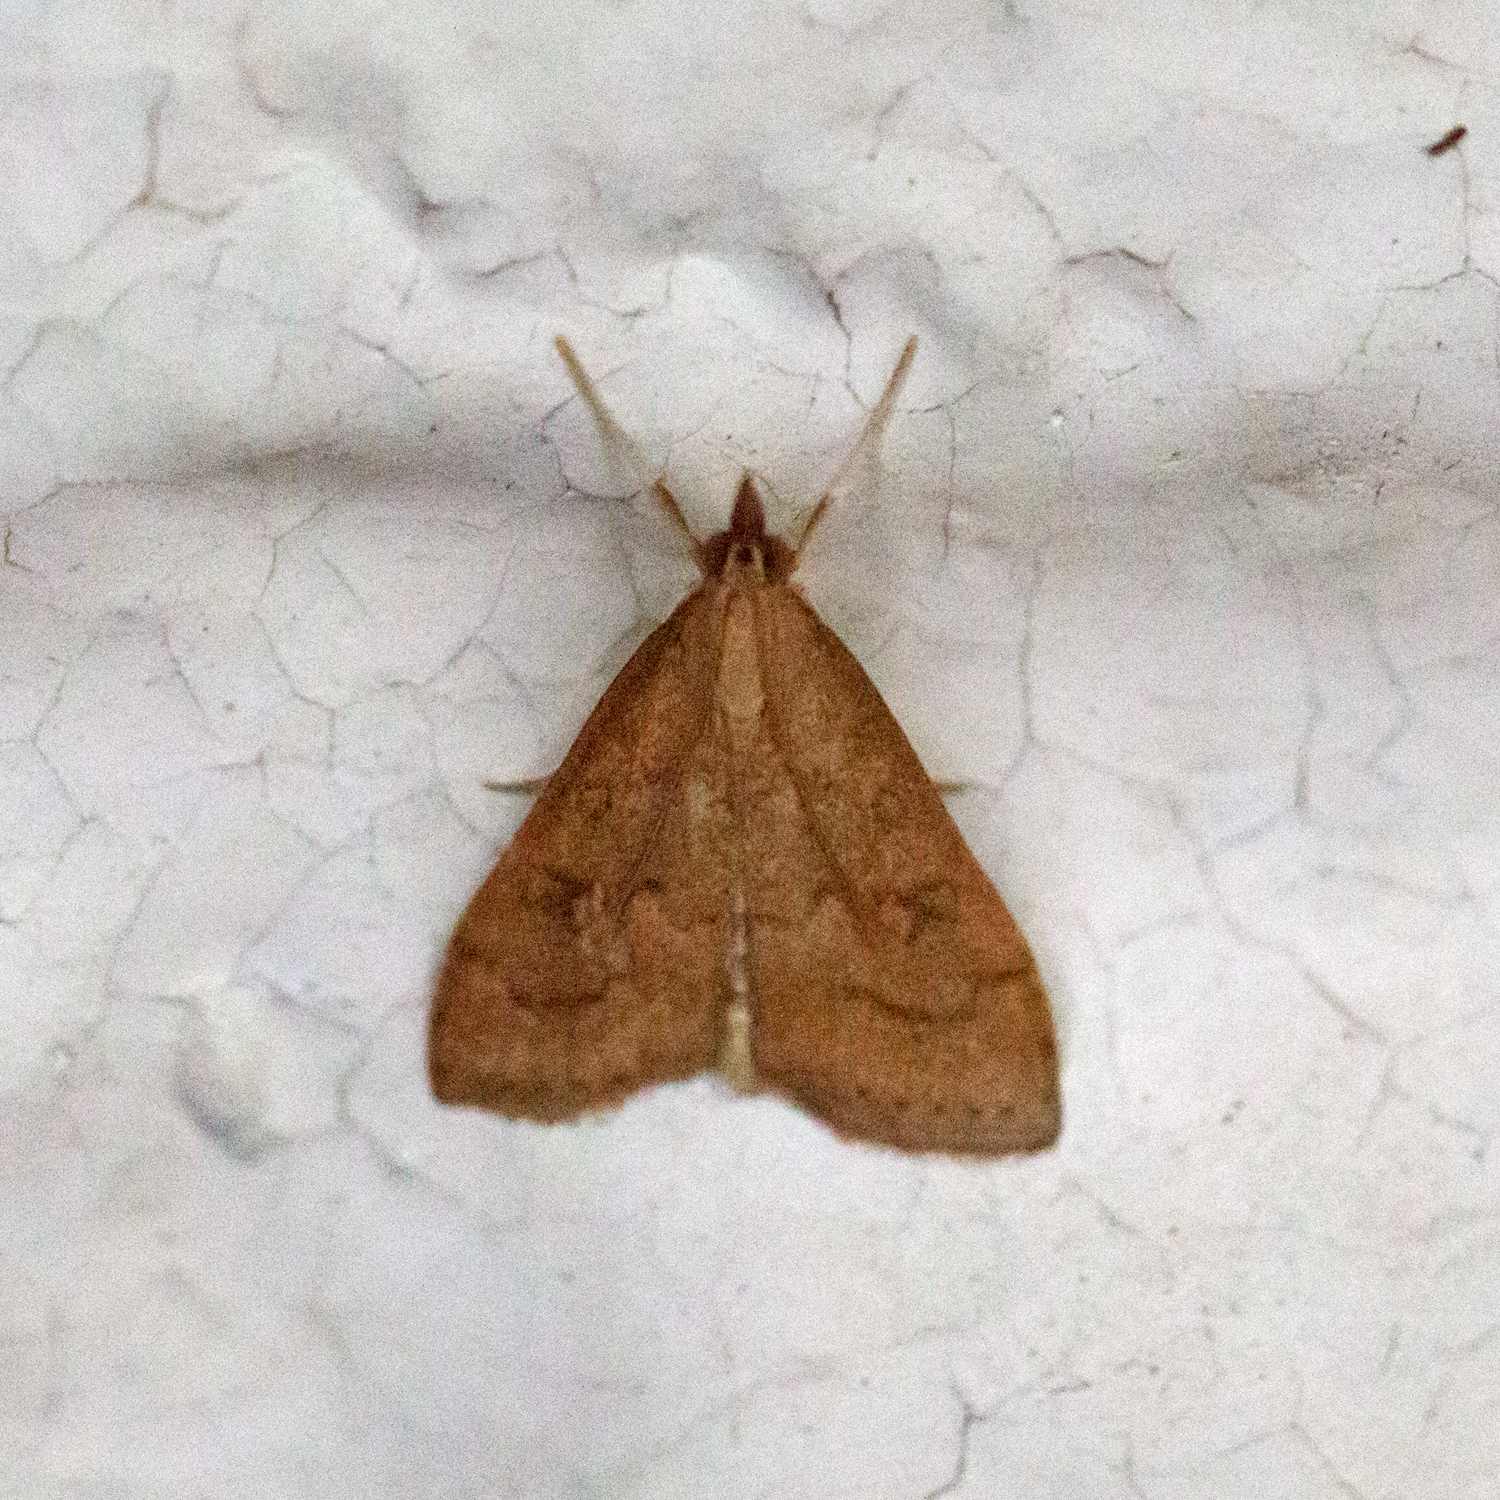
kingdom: Animalia
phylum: Arthropoda
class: Insecta
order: Lepidoptera
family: Crambidae
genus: Udea
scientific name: Udea rubigalis
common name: Celery leaftier moth
